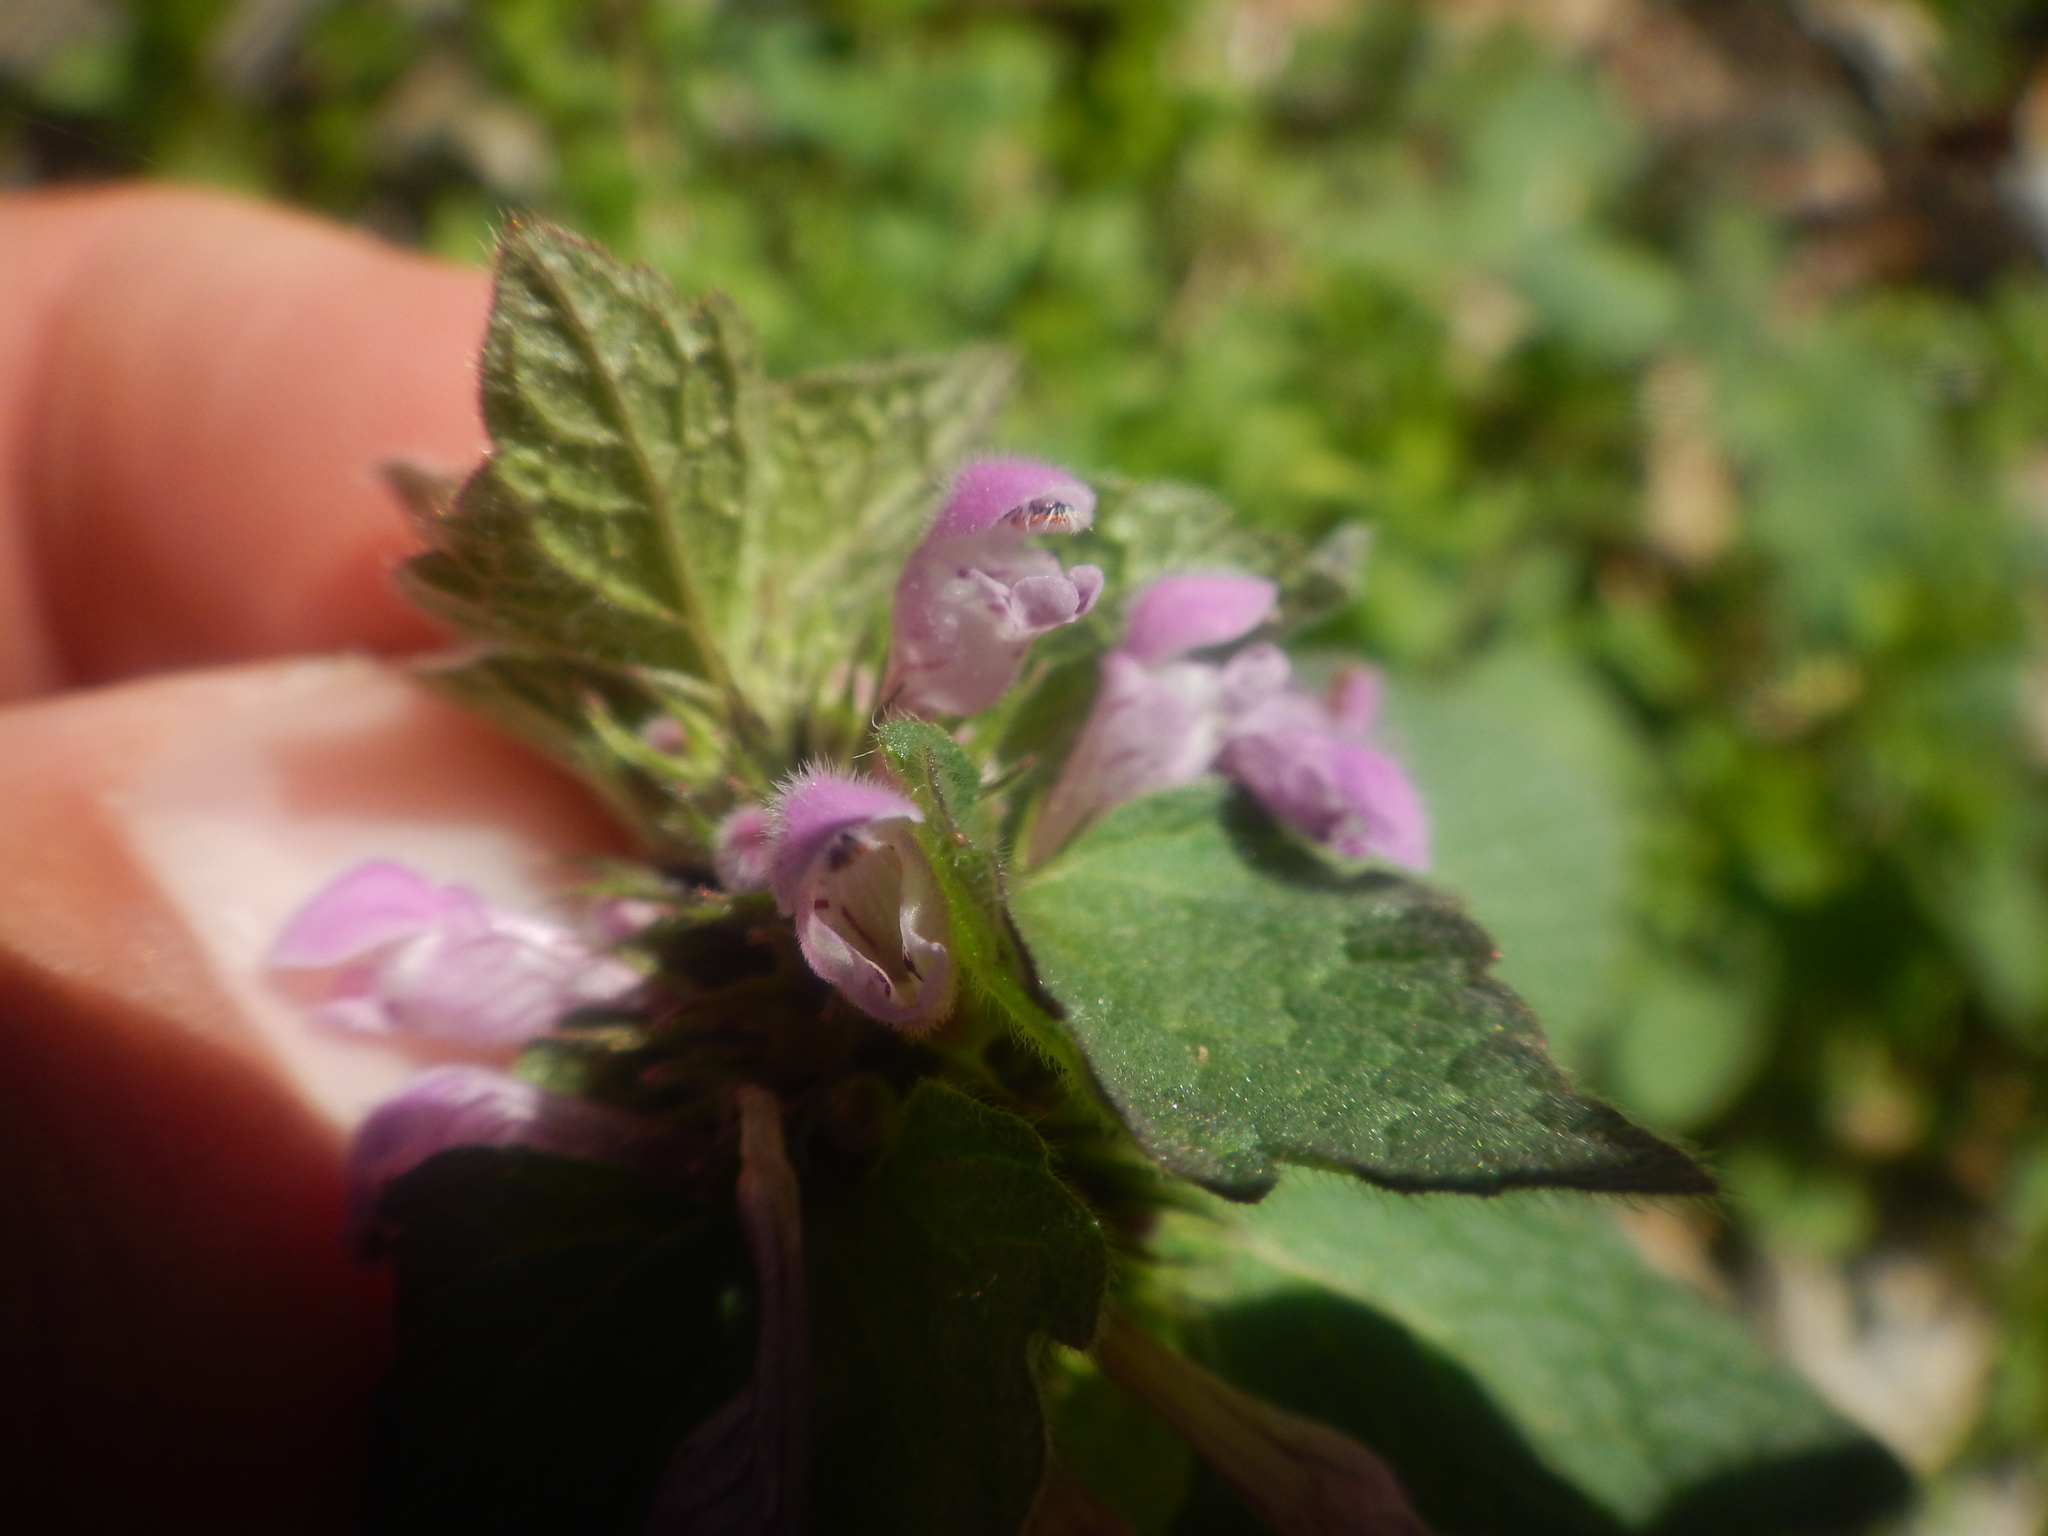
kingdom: Plantae
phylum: Tracheophyta
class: Magnoliopsida
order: Lamiales
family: Lamiaceae
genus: Lamium
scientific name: Lamium purpureum
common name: Red dead-nettle
